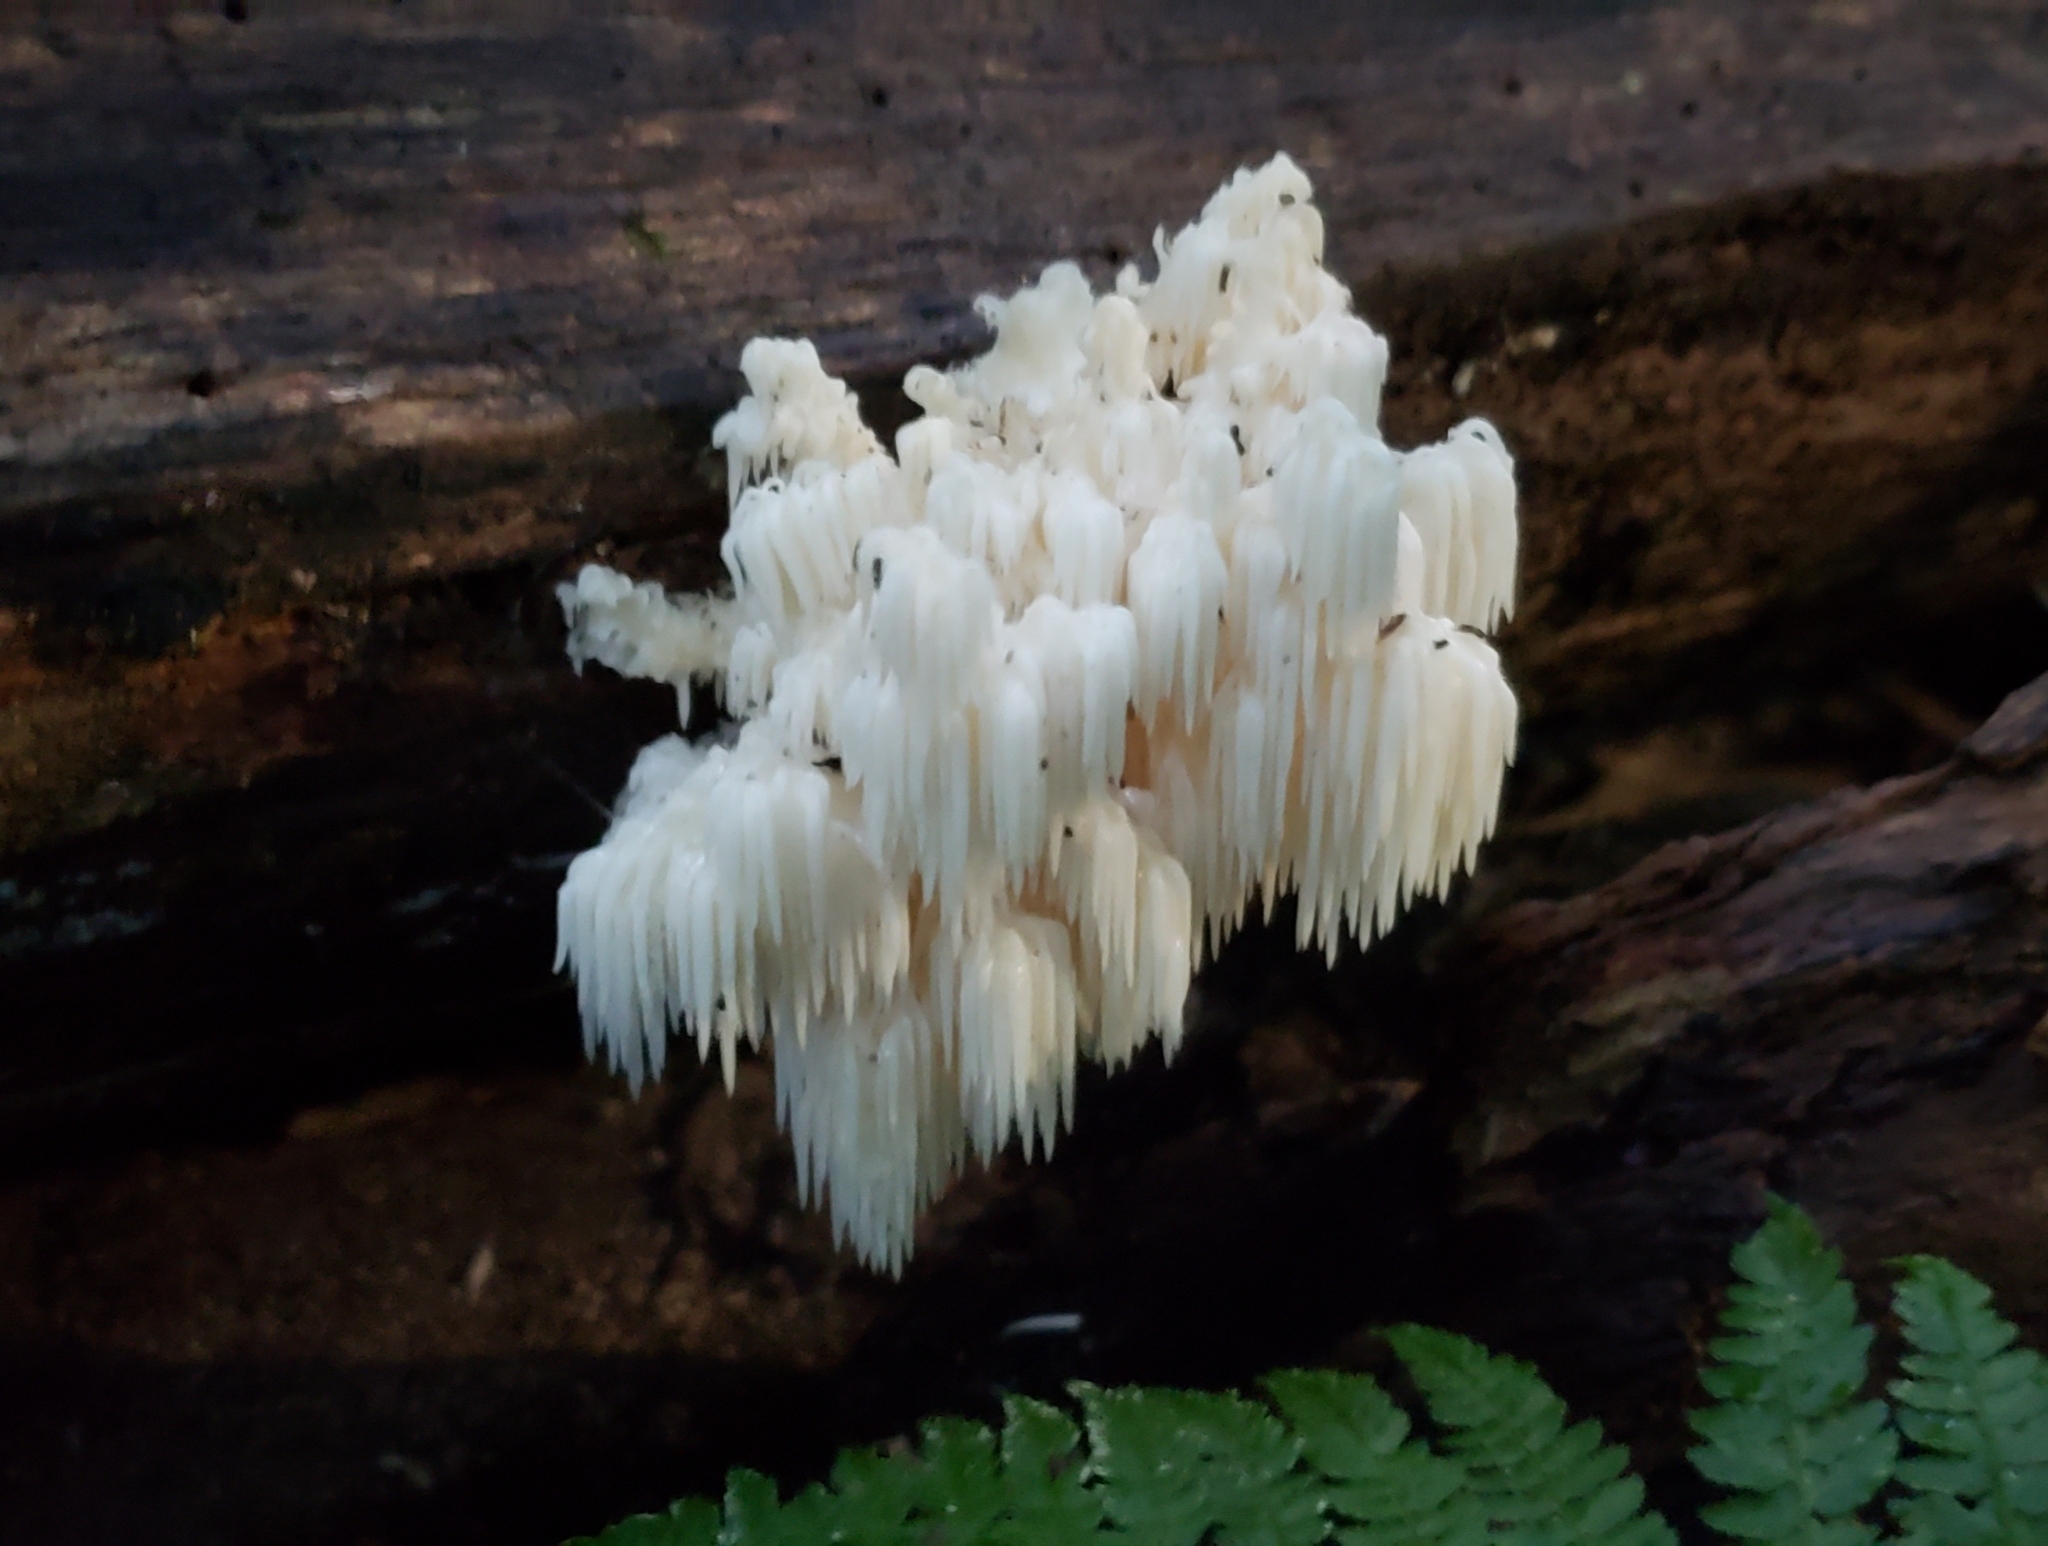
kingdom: Fungi
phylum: Basidiomycota
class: Agaricomycetes
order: Russulales
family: Hericiaceae
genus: Hericium
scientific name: Hericium americanum
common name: Bear's head tooth
